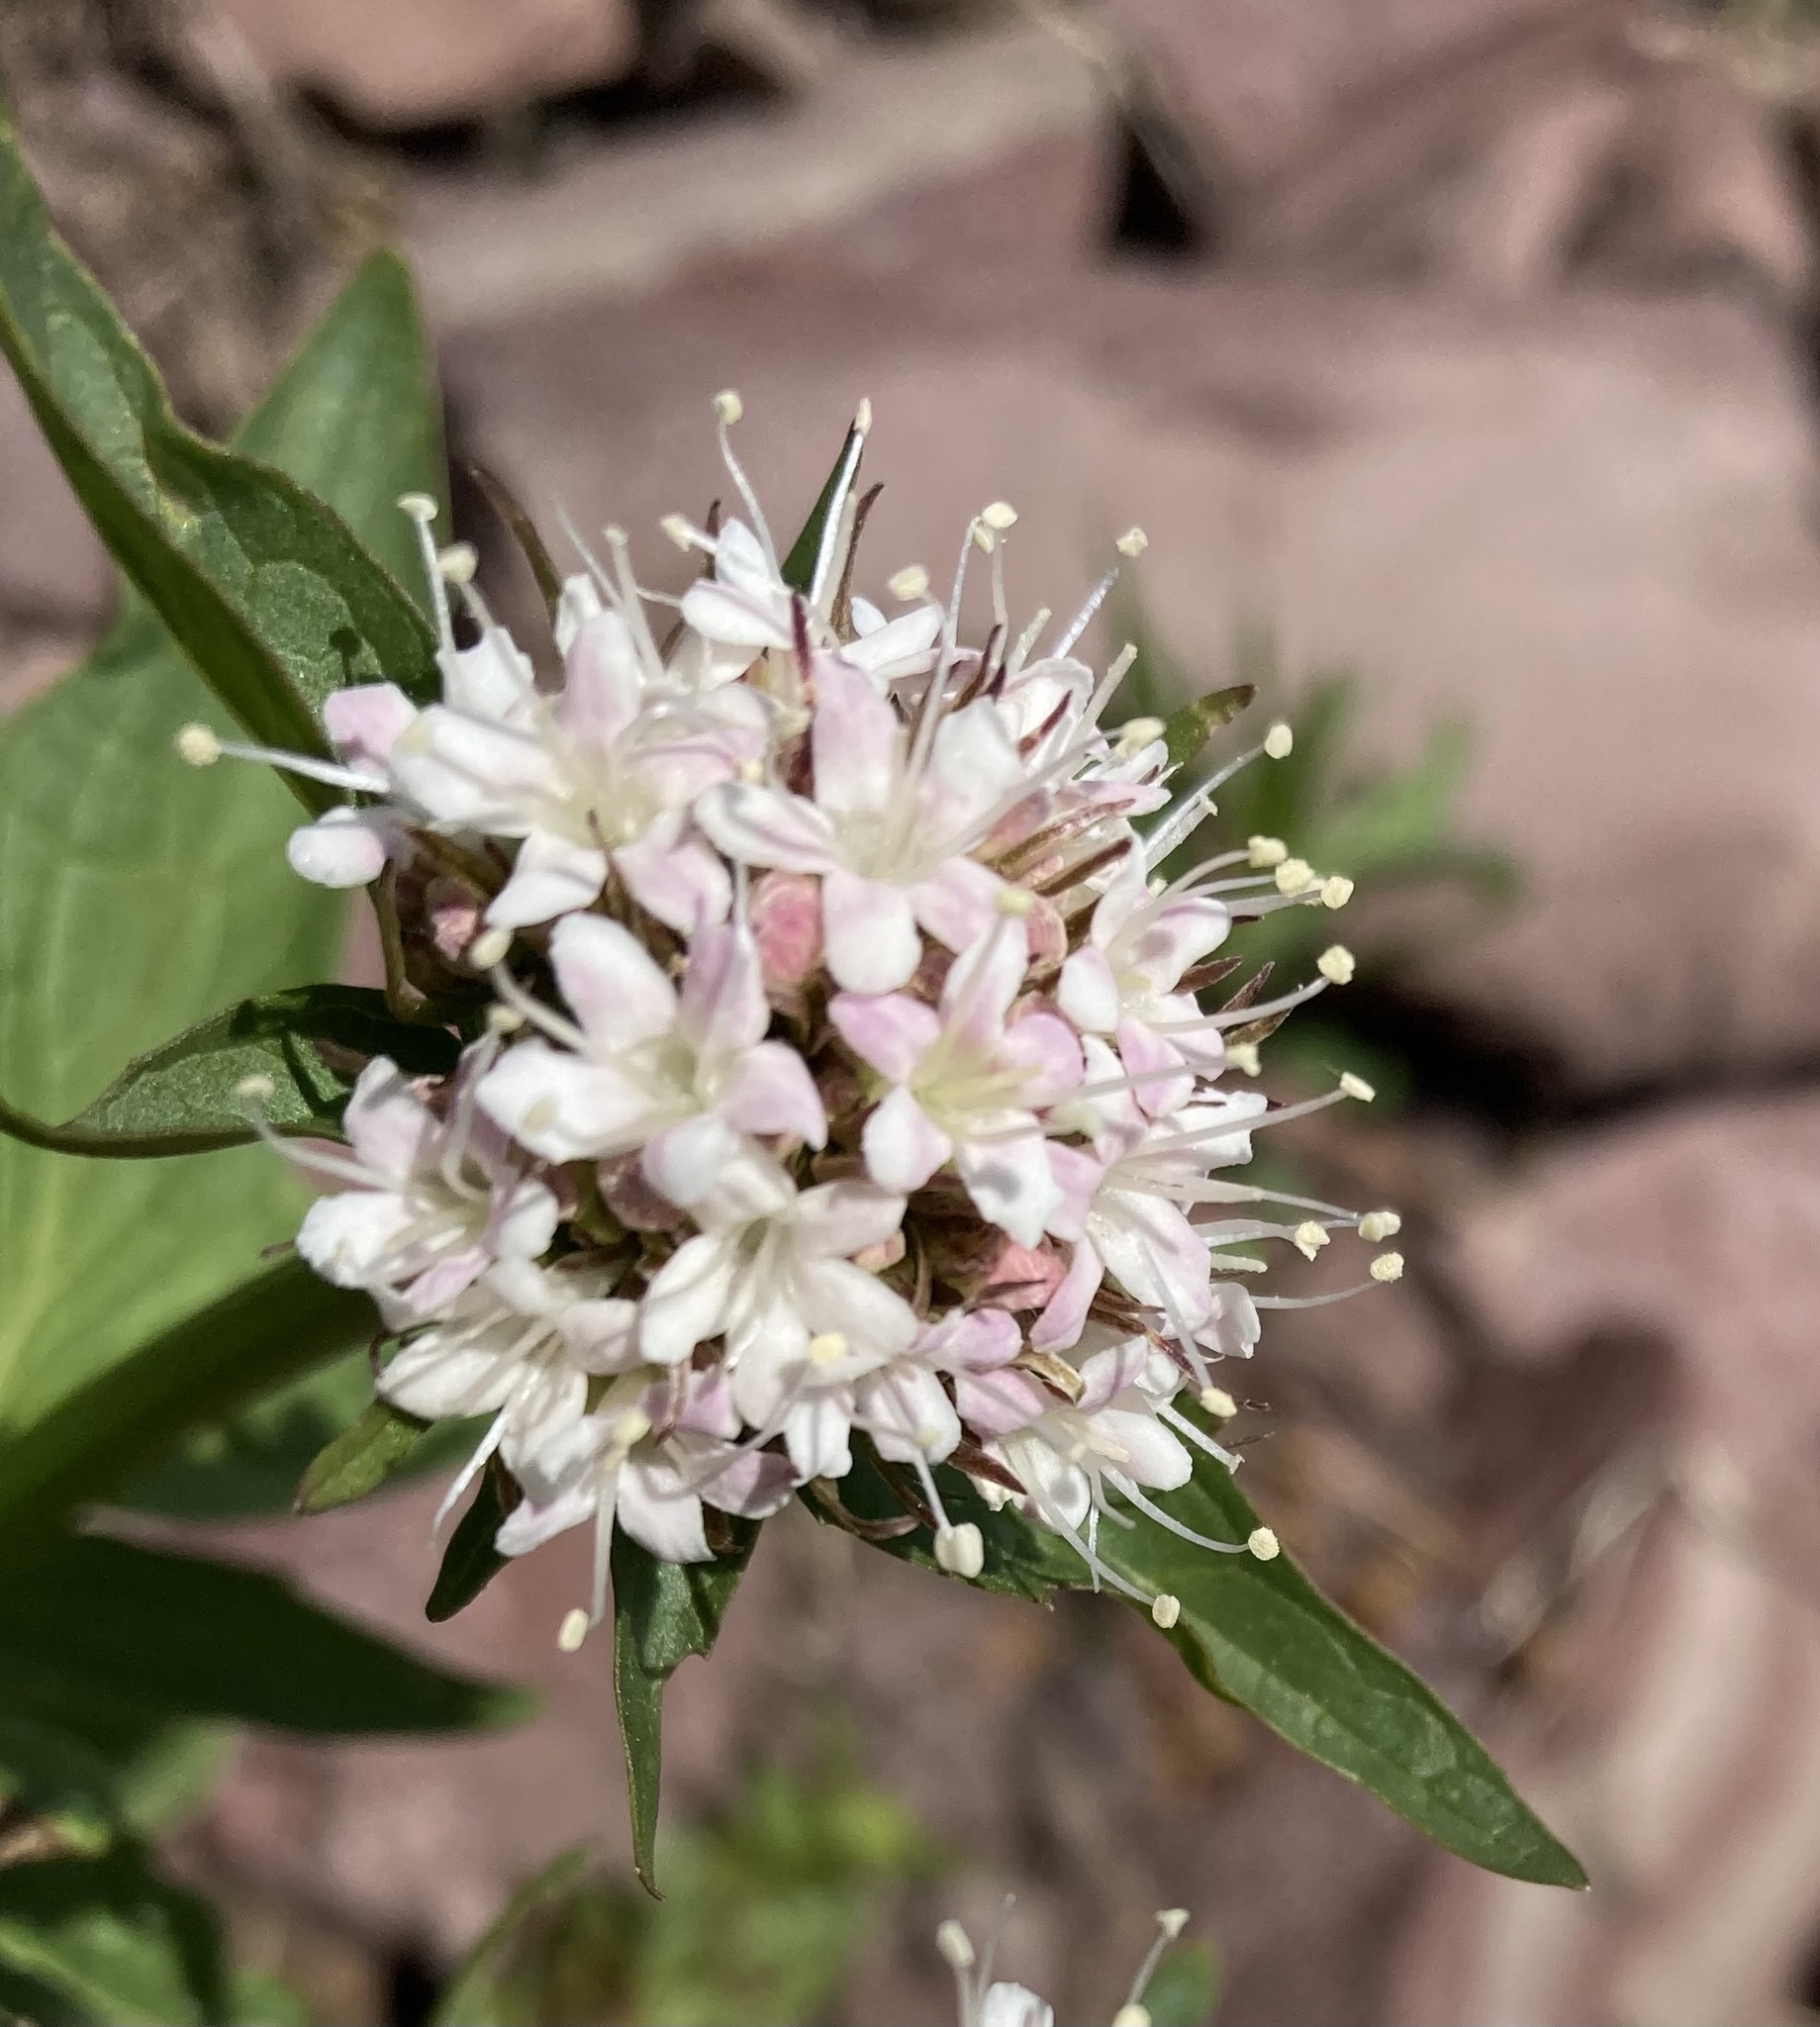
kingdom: Plantae
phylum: Tracheophyta
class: Magnoliopsida
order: Dipsacales
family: Caprifoliaceae
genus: Valeriana
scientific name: Valeriana sitchensis
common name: Pacific valerian
